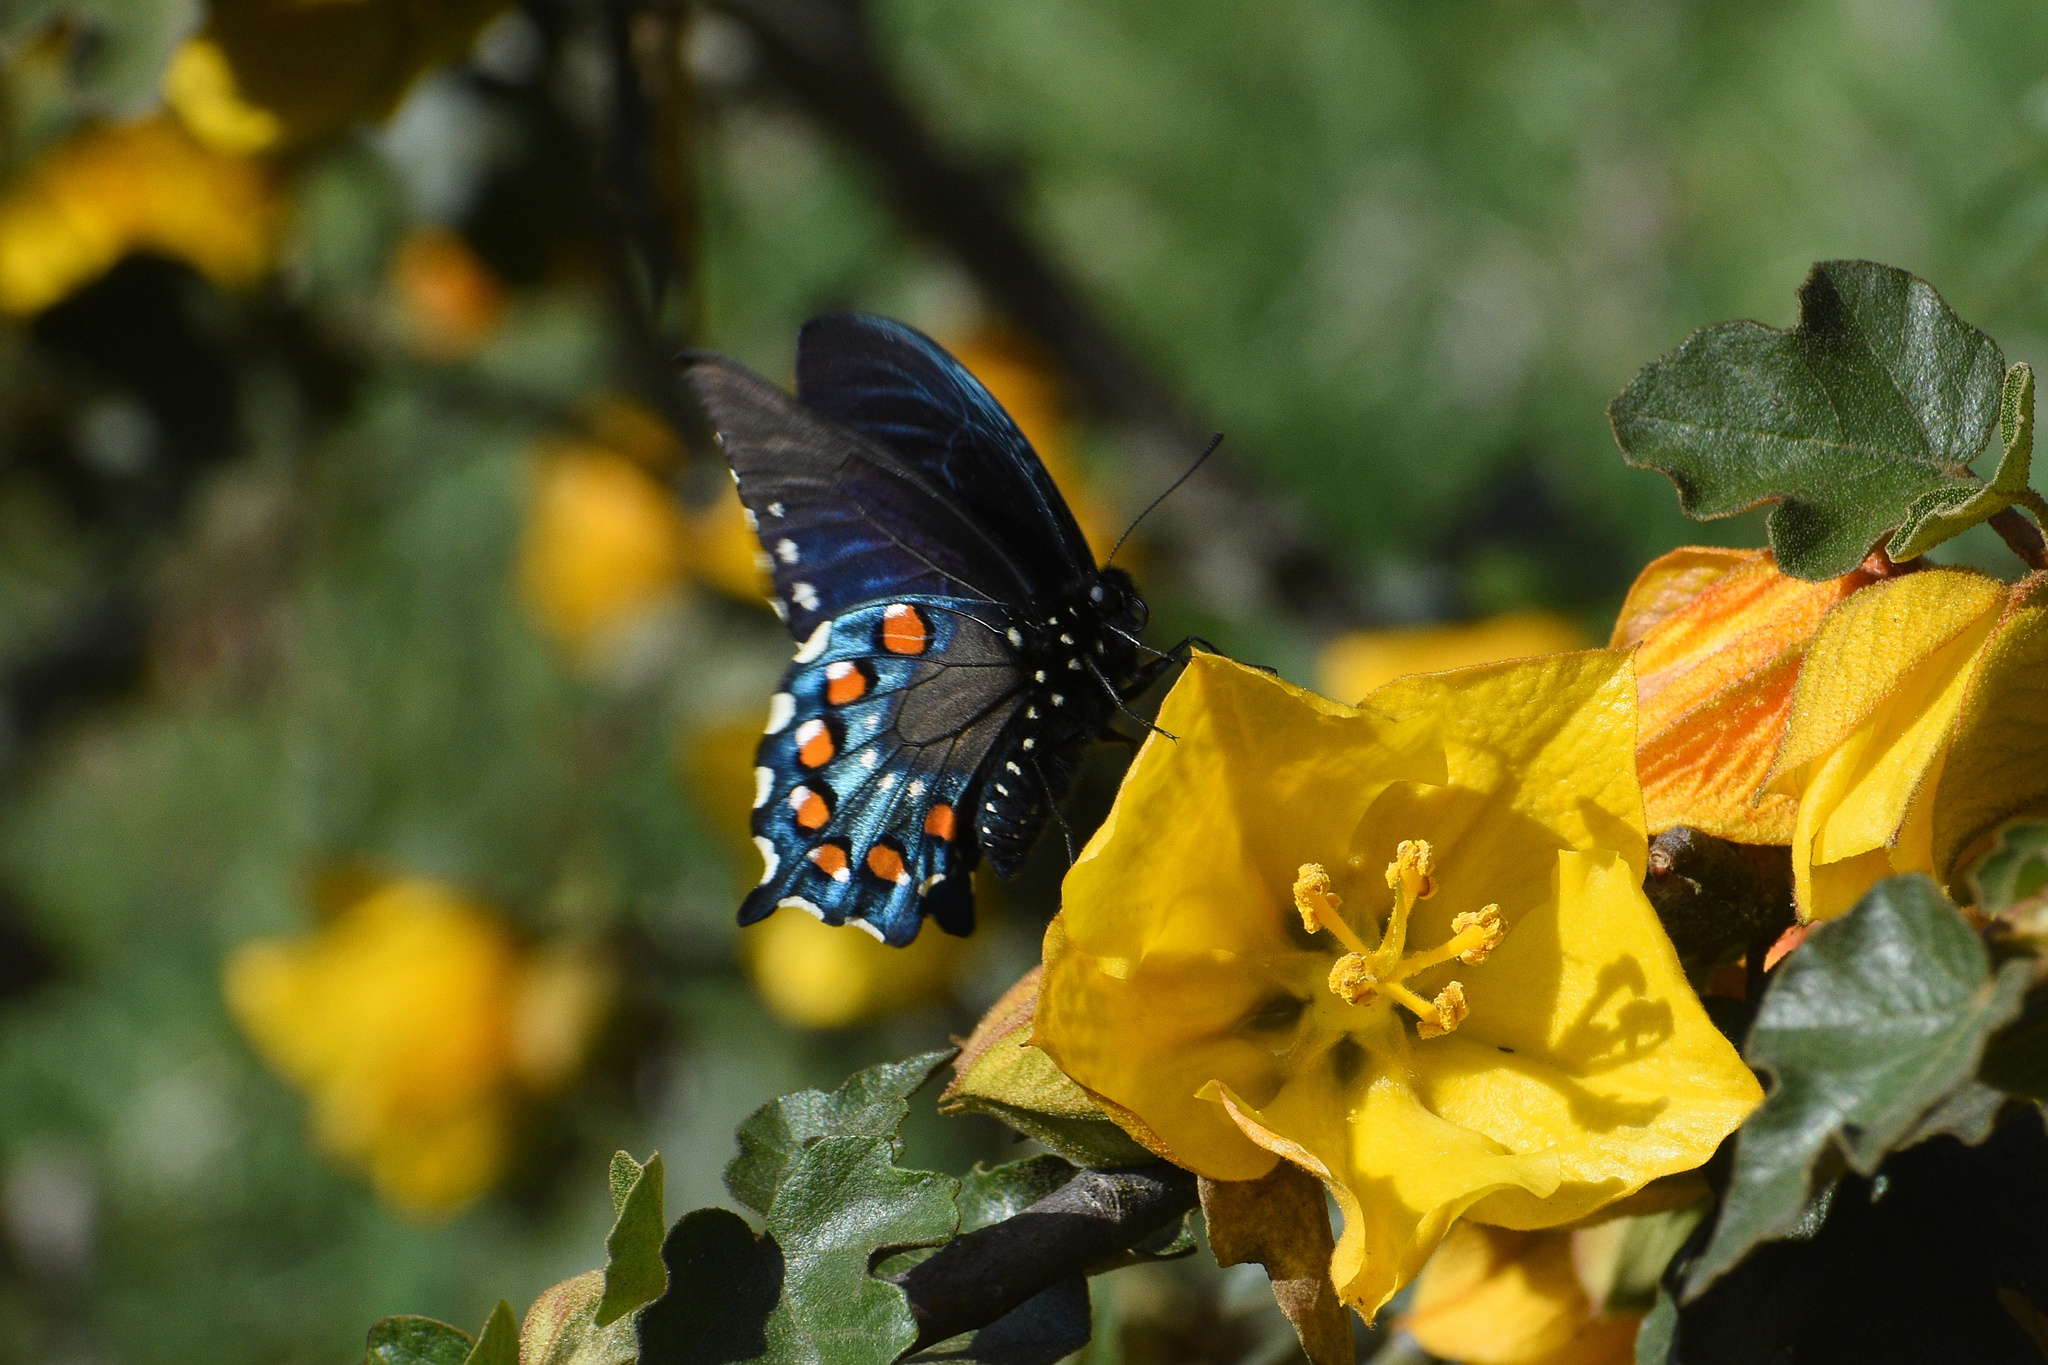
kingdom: Animalia
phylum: Arthropoda
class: Insecta
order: Lepidoptera
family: Papilionidae
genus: Battus
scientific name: Battus philenor
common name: Pipevine swallowtail
